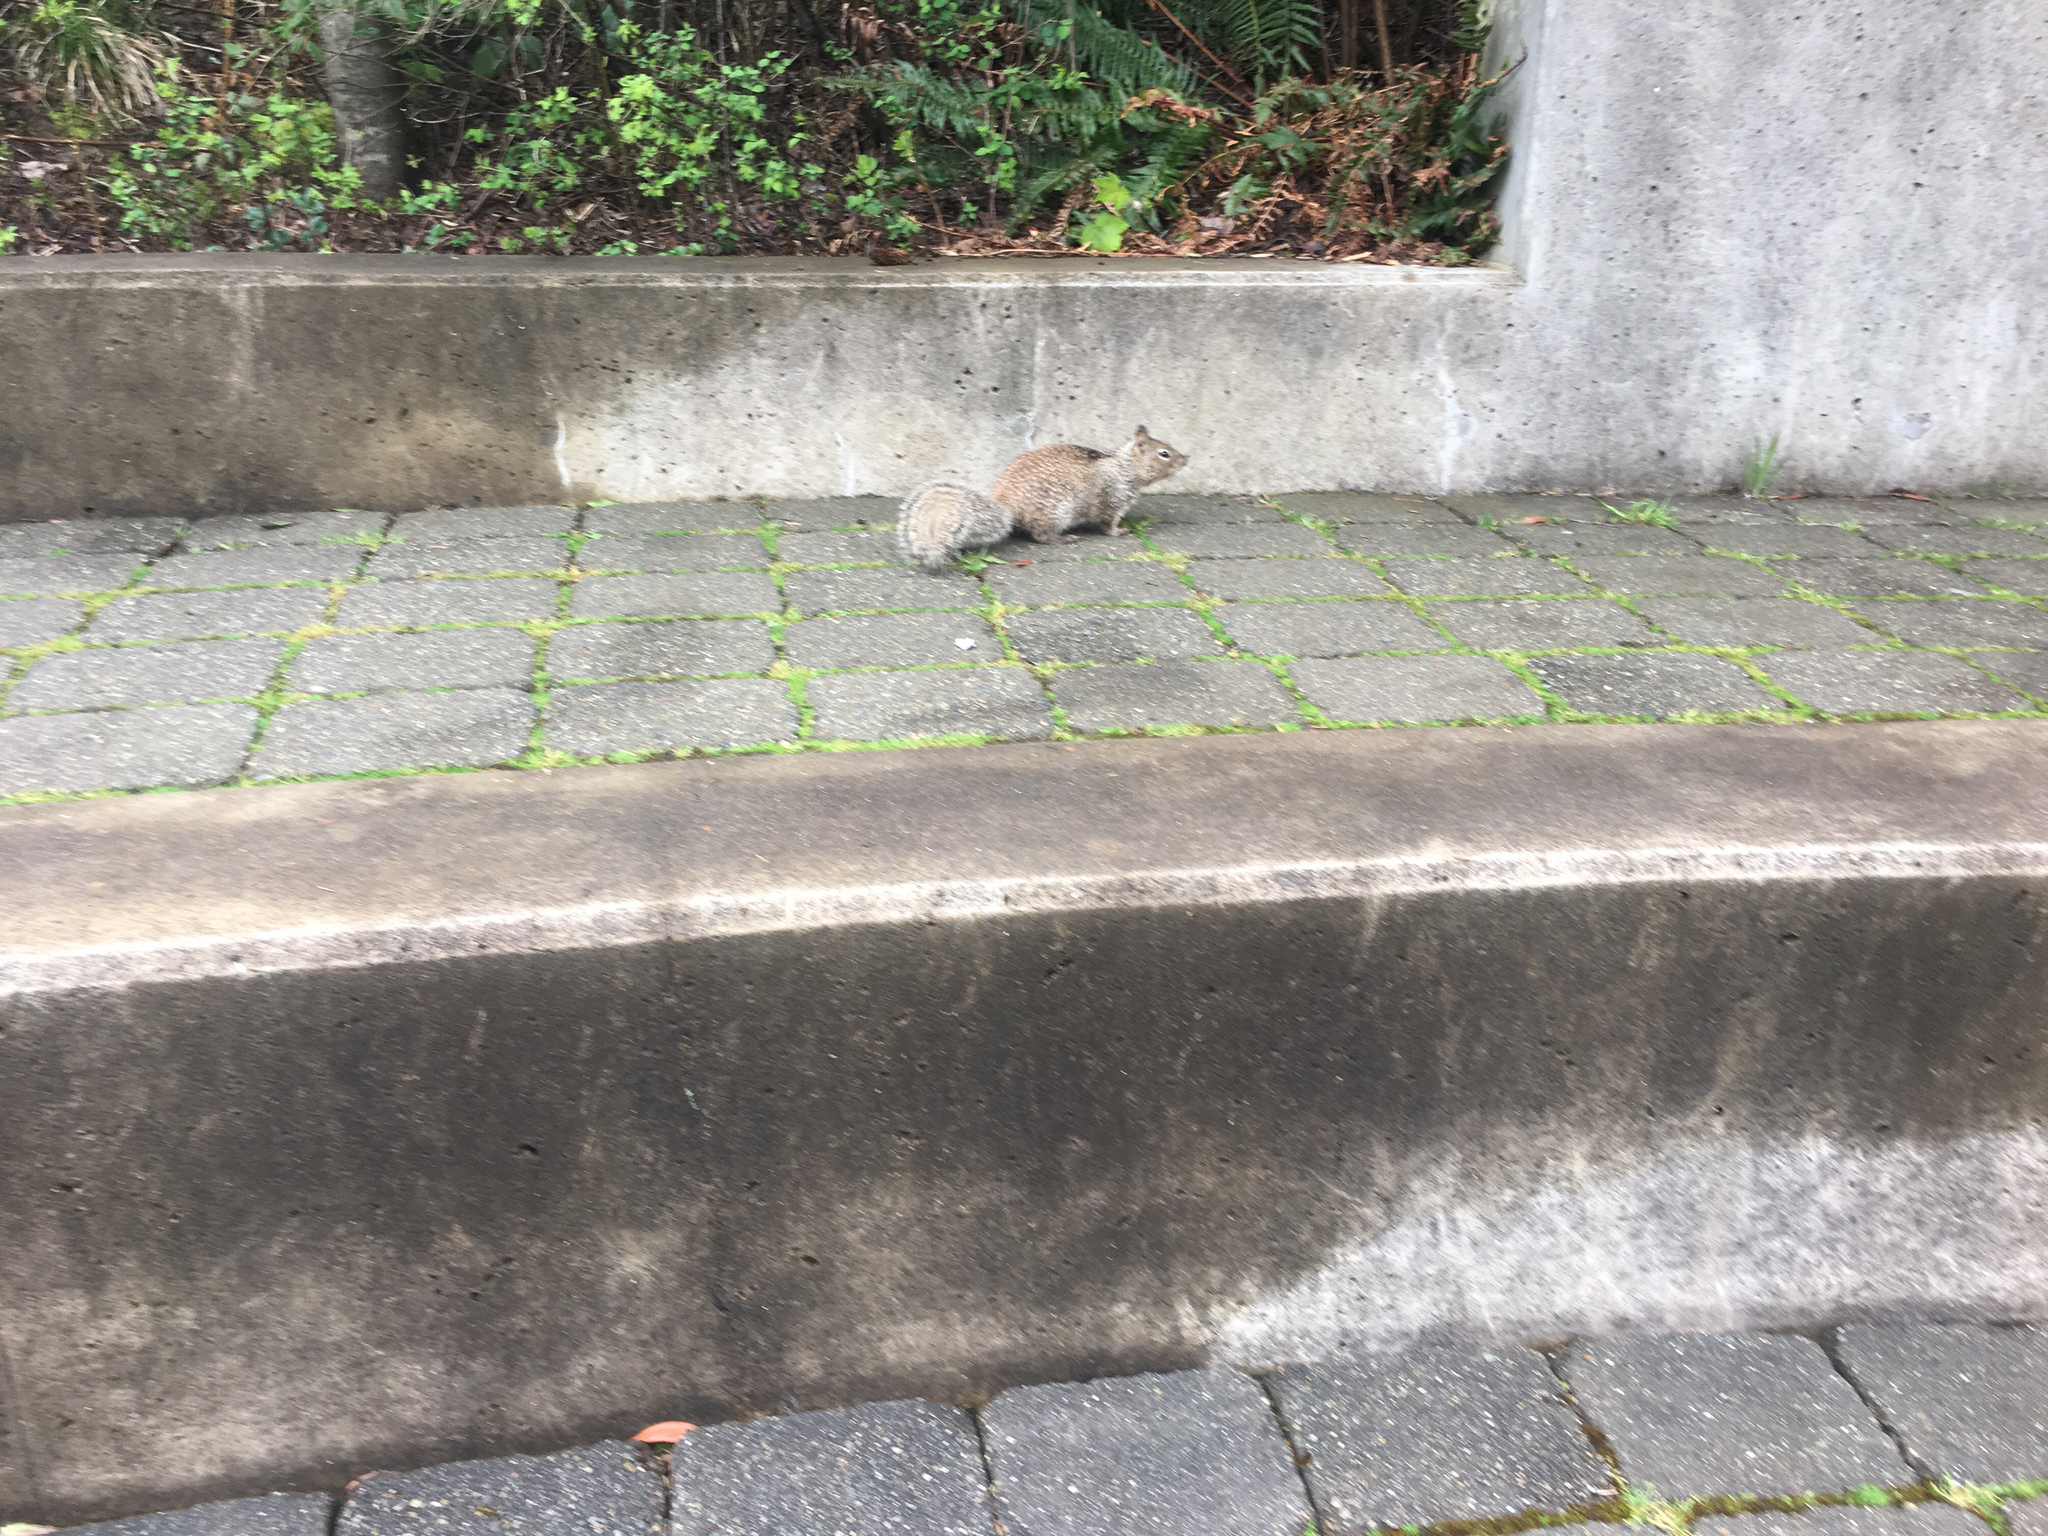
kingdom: Animalia
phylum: Chordata
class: Mammalia
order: Rodentia
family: Sciuridae
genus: Otospermophilus
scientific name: Otospermophilus beecheyi
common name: California ground squirrel
